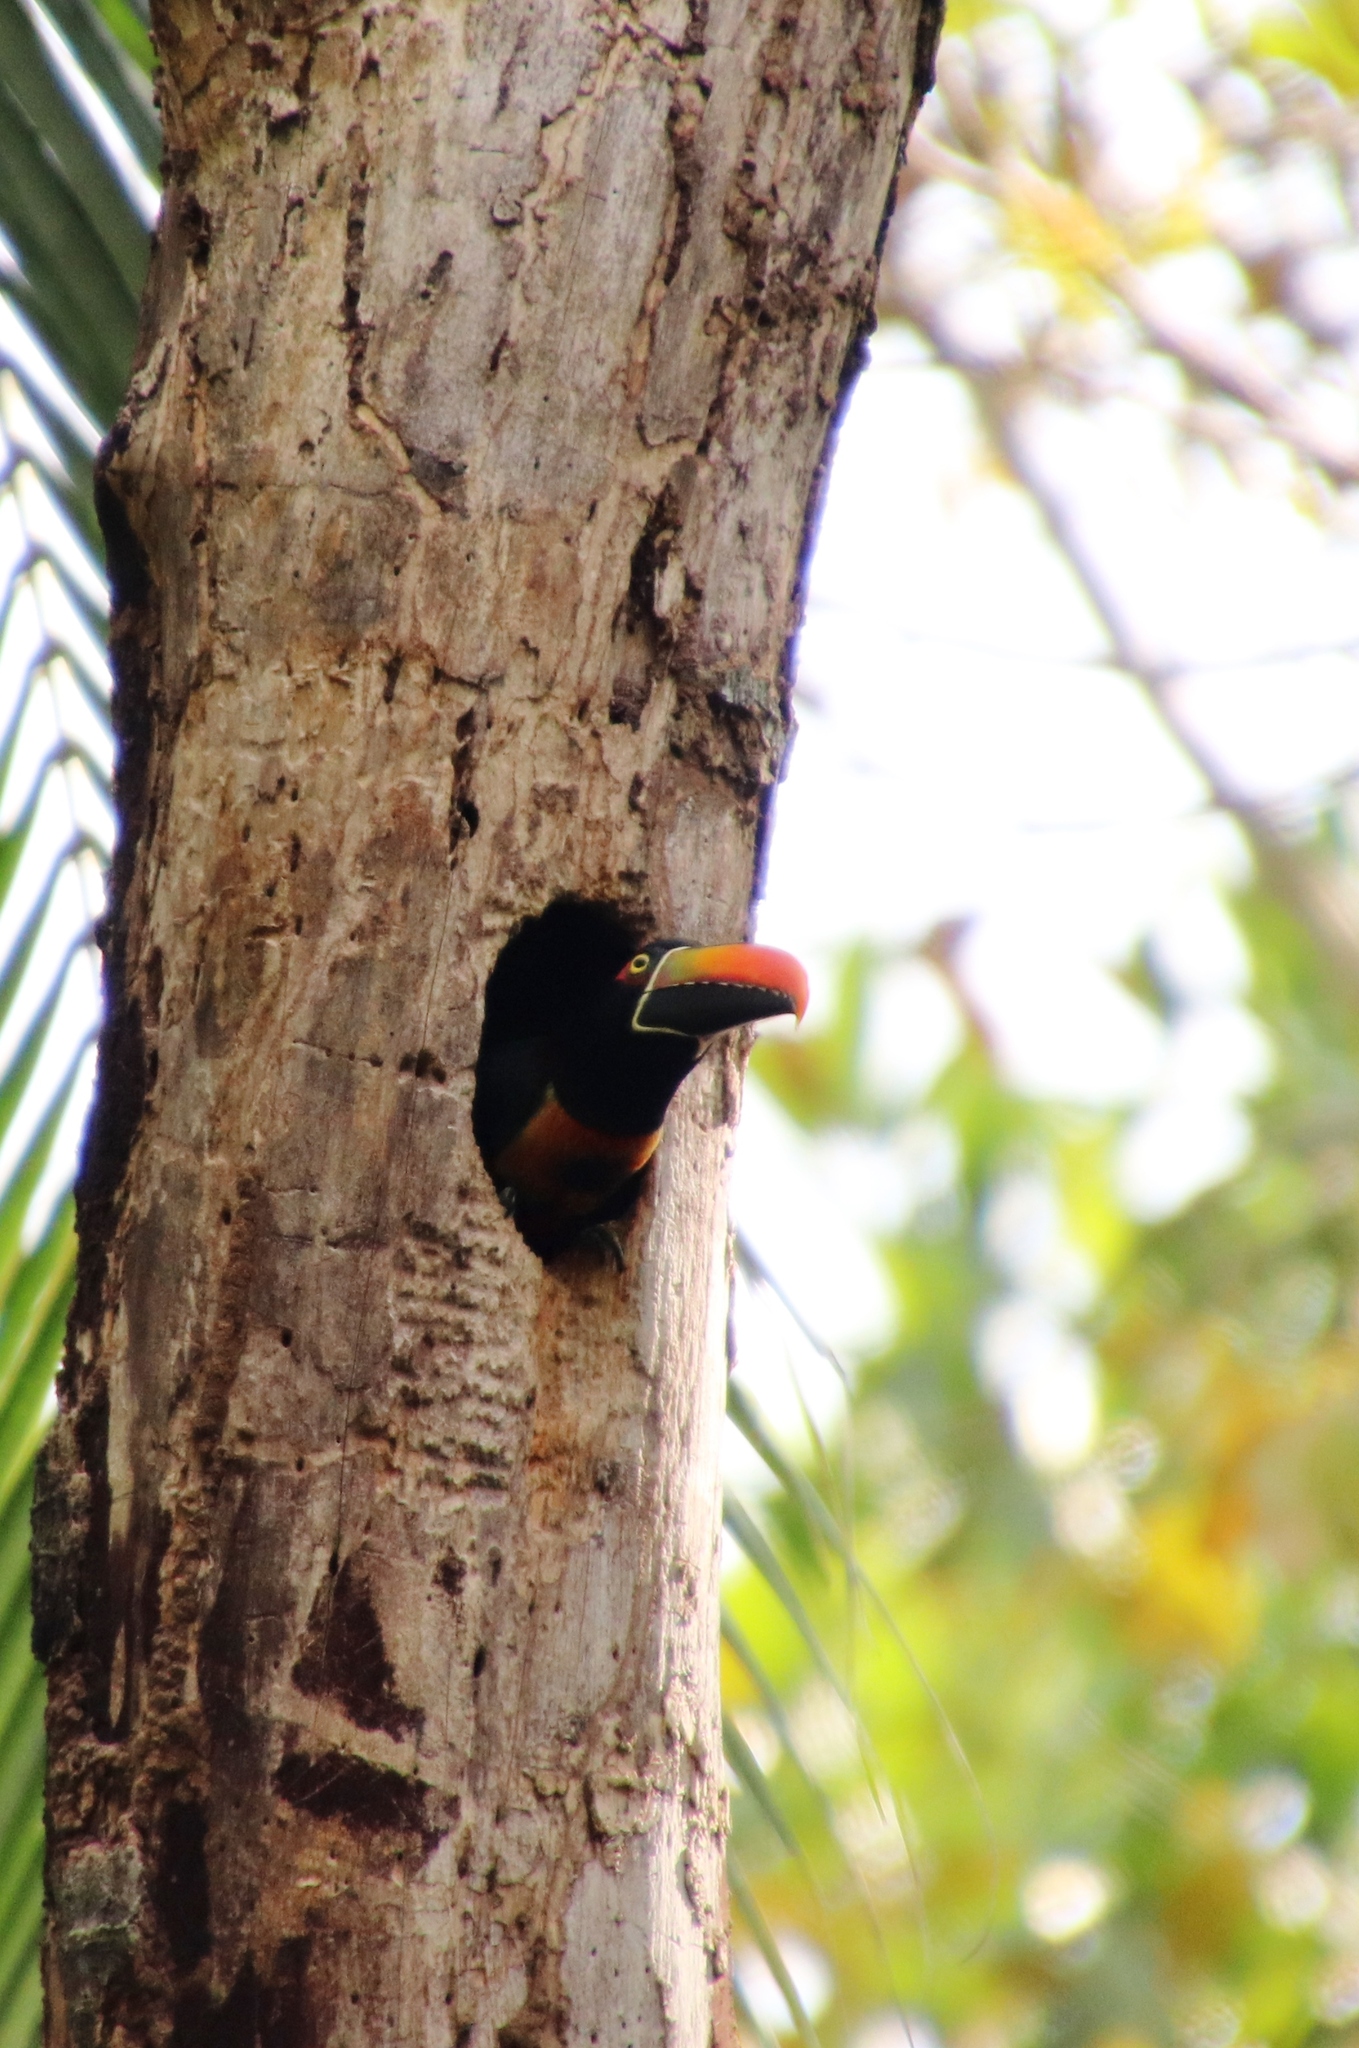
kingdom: Animalia
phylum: Chordata
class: Aves
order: Piciformes
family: Ramphastidae
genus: Pteroglossus
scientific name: Pteroglossus frantzii
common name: Fiery-billed aracari
